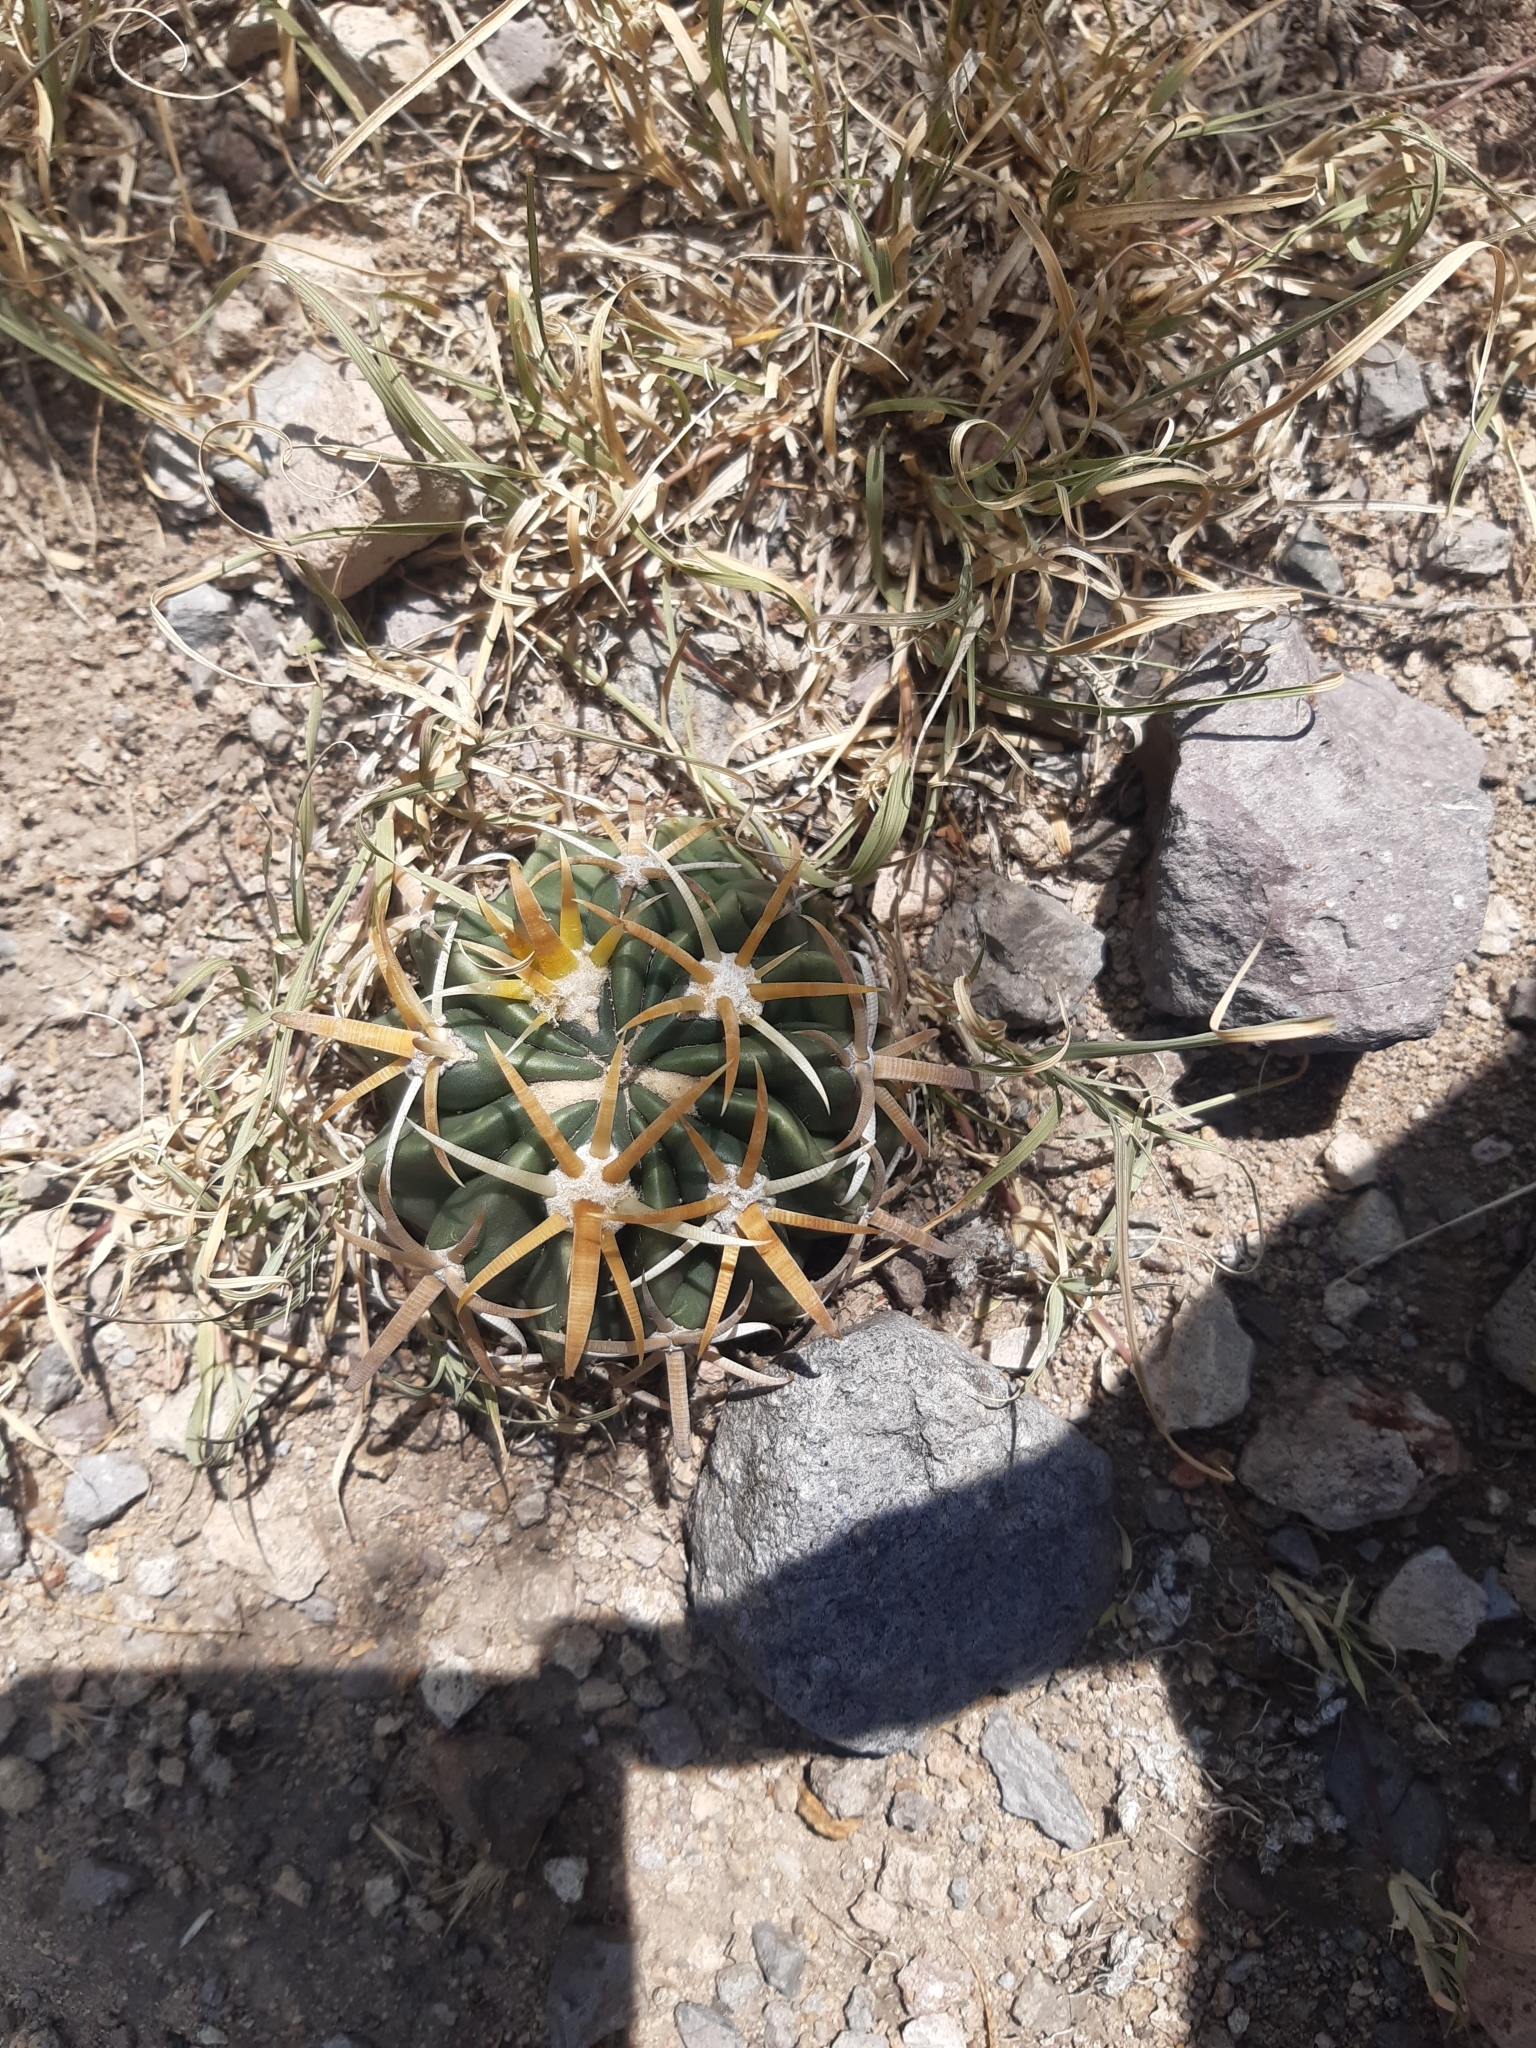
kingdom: Plantae
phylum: Tracheophyta
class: Magnoliopsida
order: Caryophyllales
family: Cactaceae
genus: Ferocactus
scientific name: Ferocactus latispinus
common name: Devil's-tongue cactus
